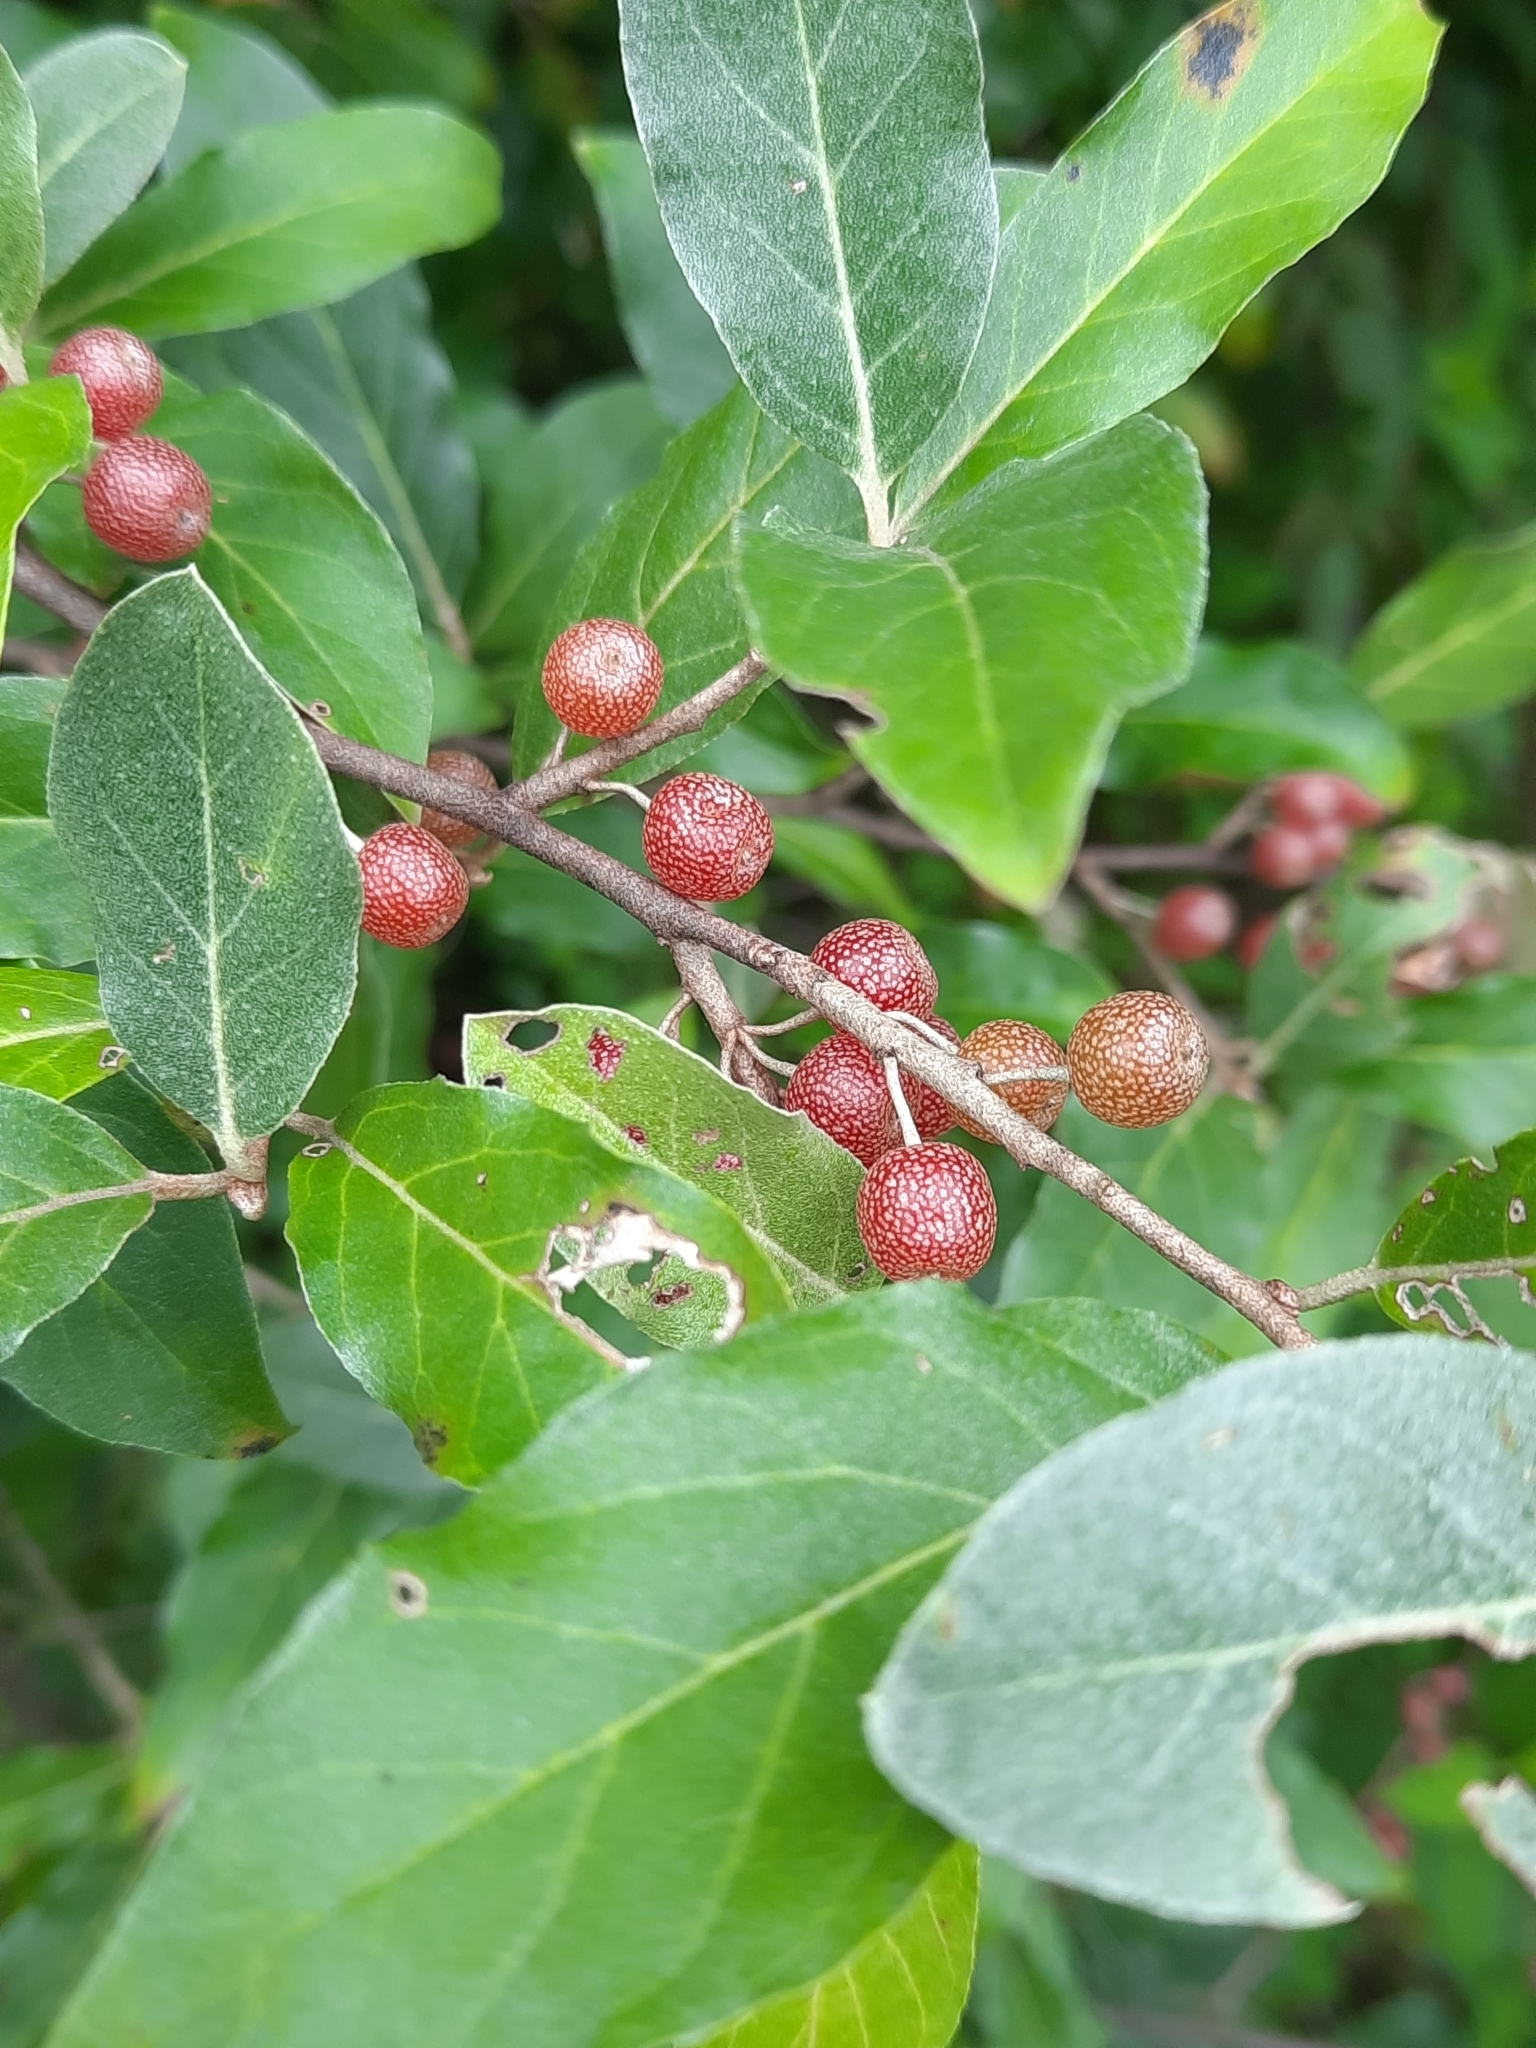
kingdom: Plantae
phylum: Tracheophyta
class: Magnoliopsida
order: Rosales
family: Elaeagnaceae
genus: Elaeagnus
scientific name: Elaeagnus umbellata
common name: Autumn olive
